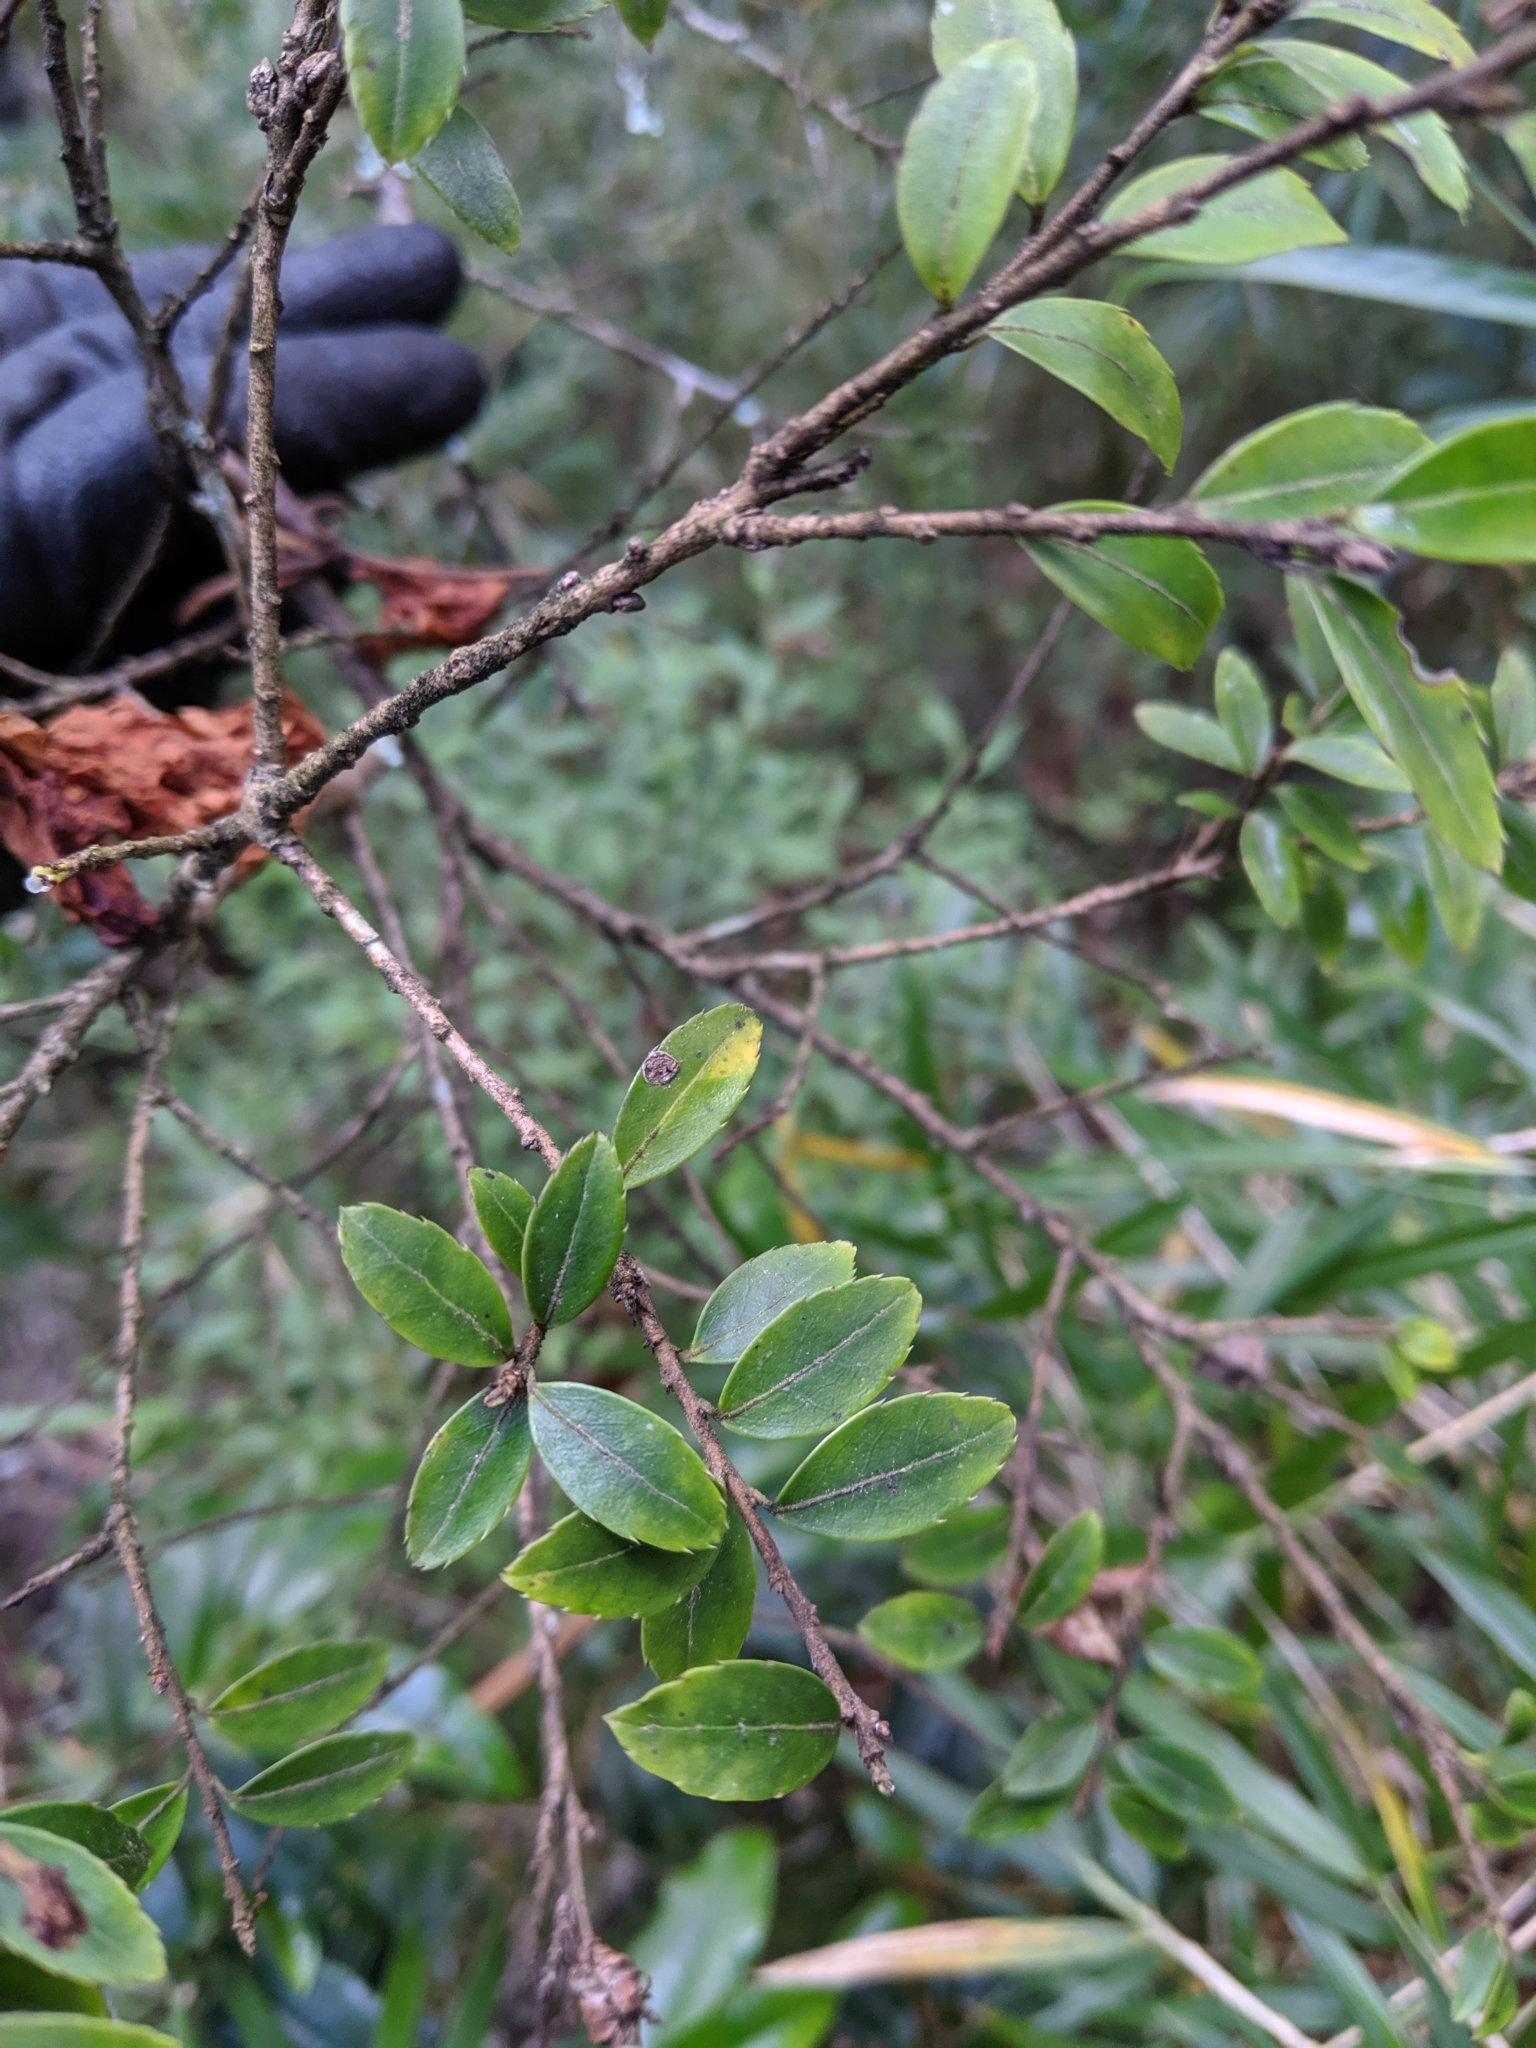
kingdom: Plantae
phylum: Tracheophyta
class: Magnoliopsida
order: Aquifoliales
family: Aquifoliaceae
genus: Ilex
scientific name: Ilex yunnanensis
